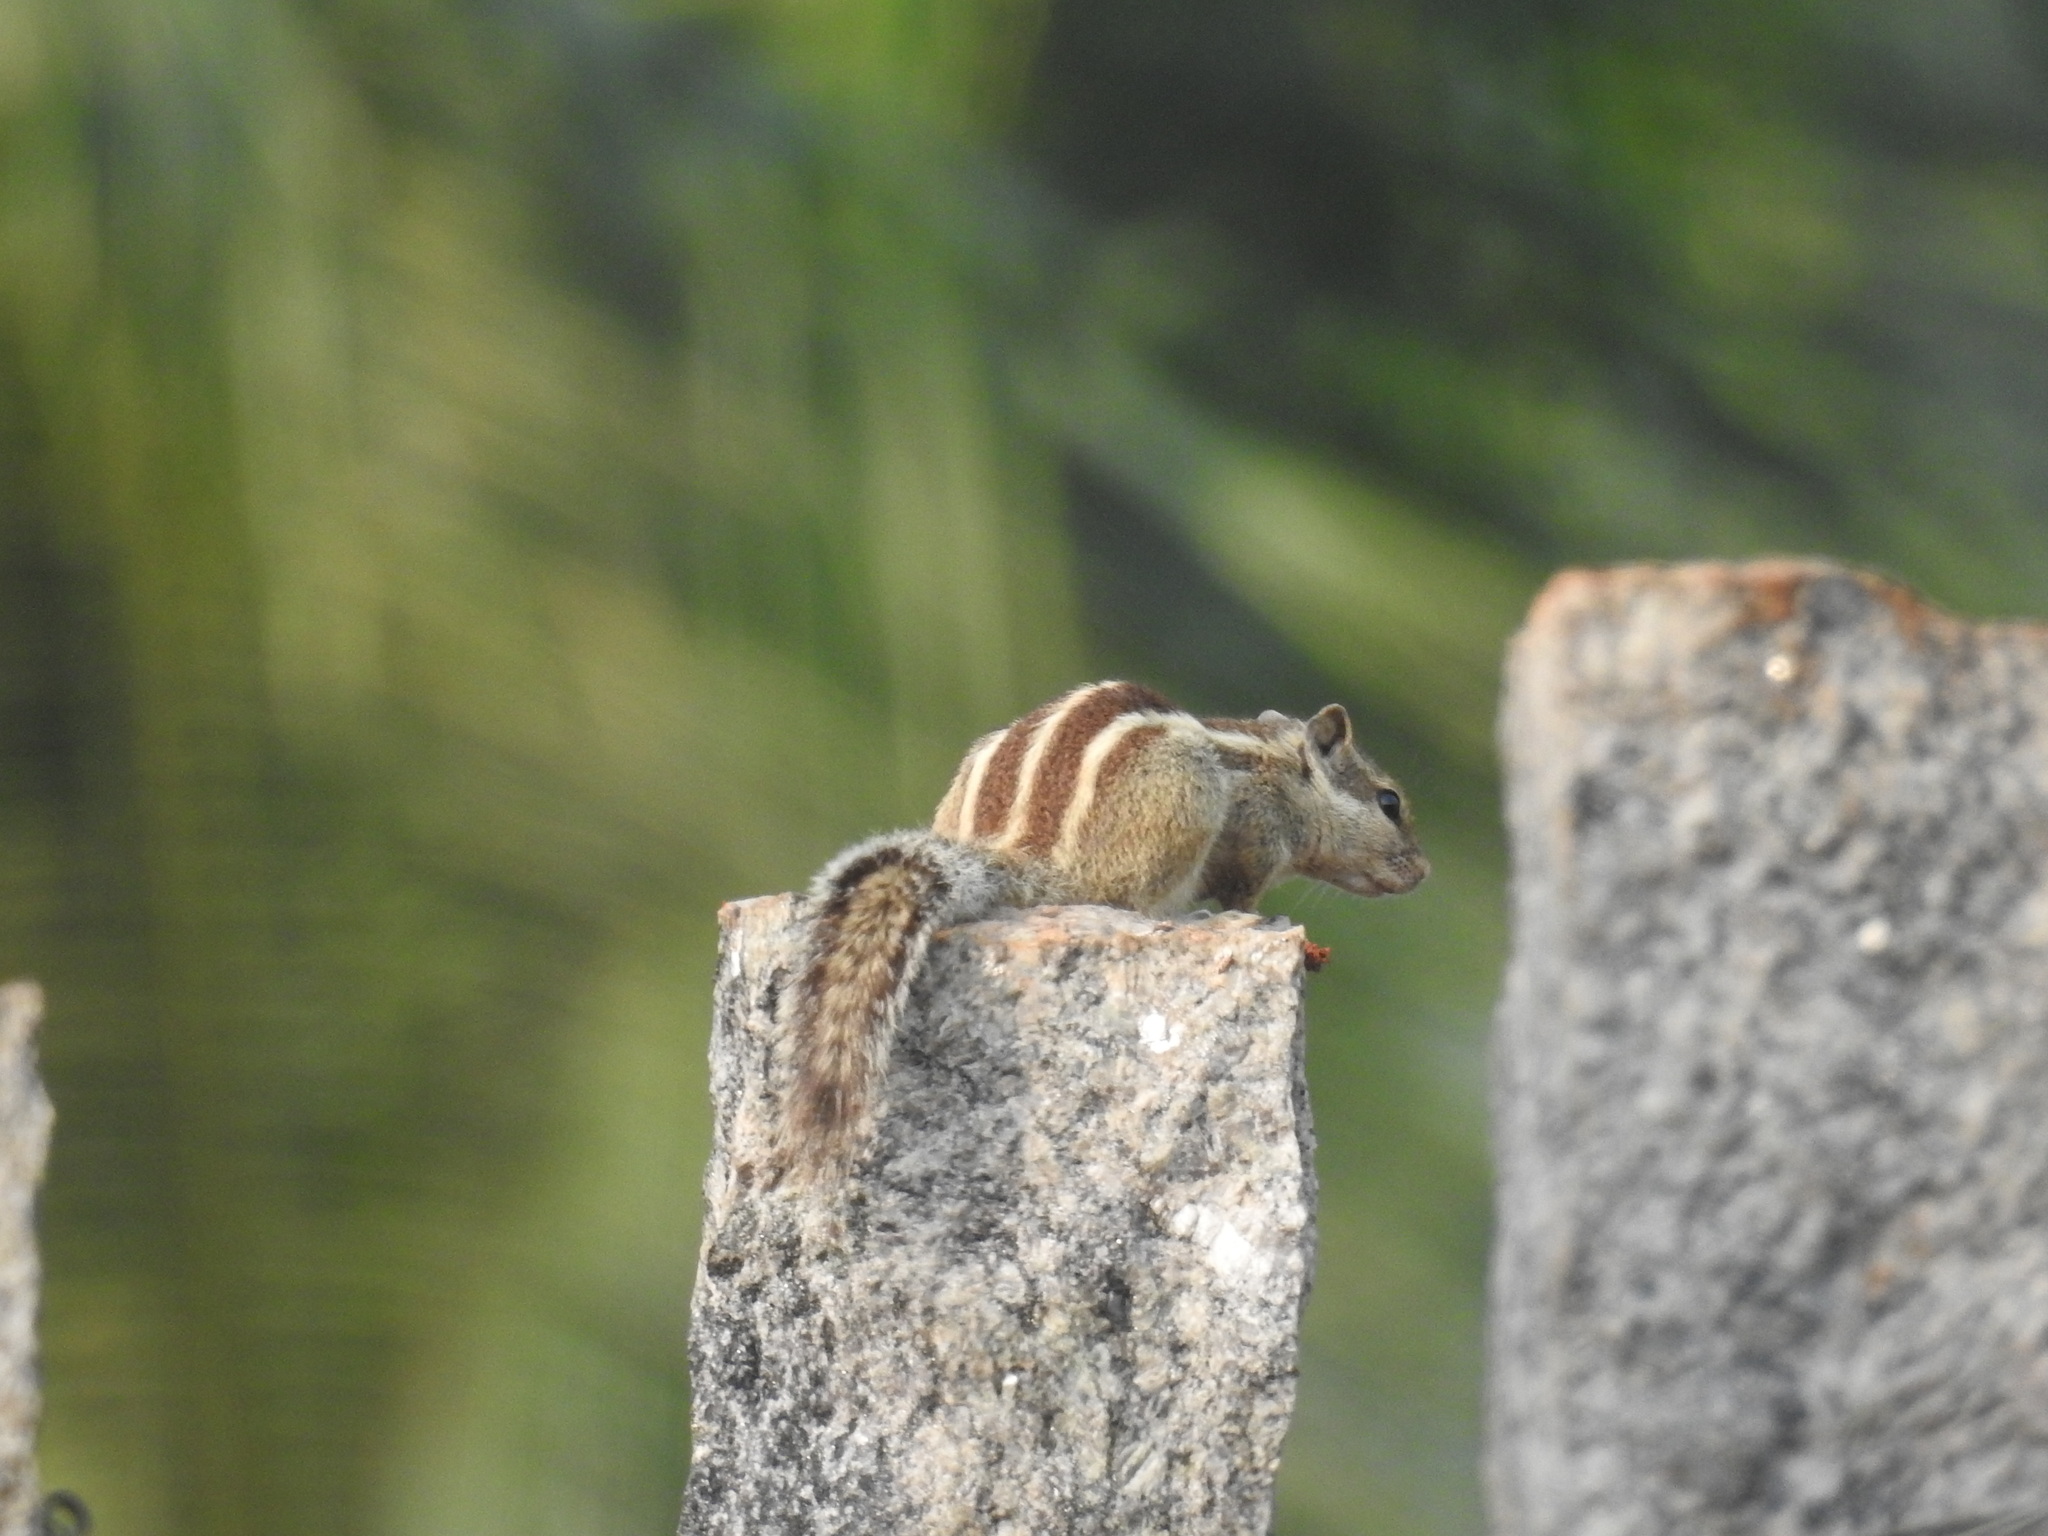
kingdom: Animalia
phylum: Chordata
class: Mammalia
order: Rodentia
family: Sciuridae
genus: Funambulus
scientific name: Funambulus pennantii
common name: Northern palm squirrel
